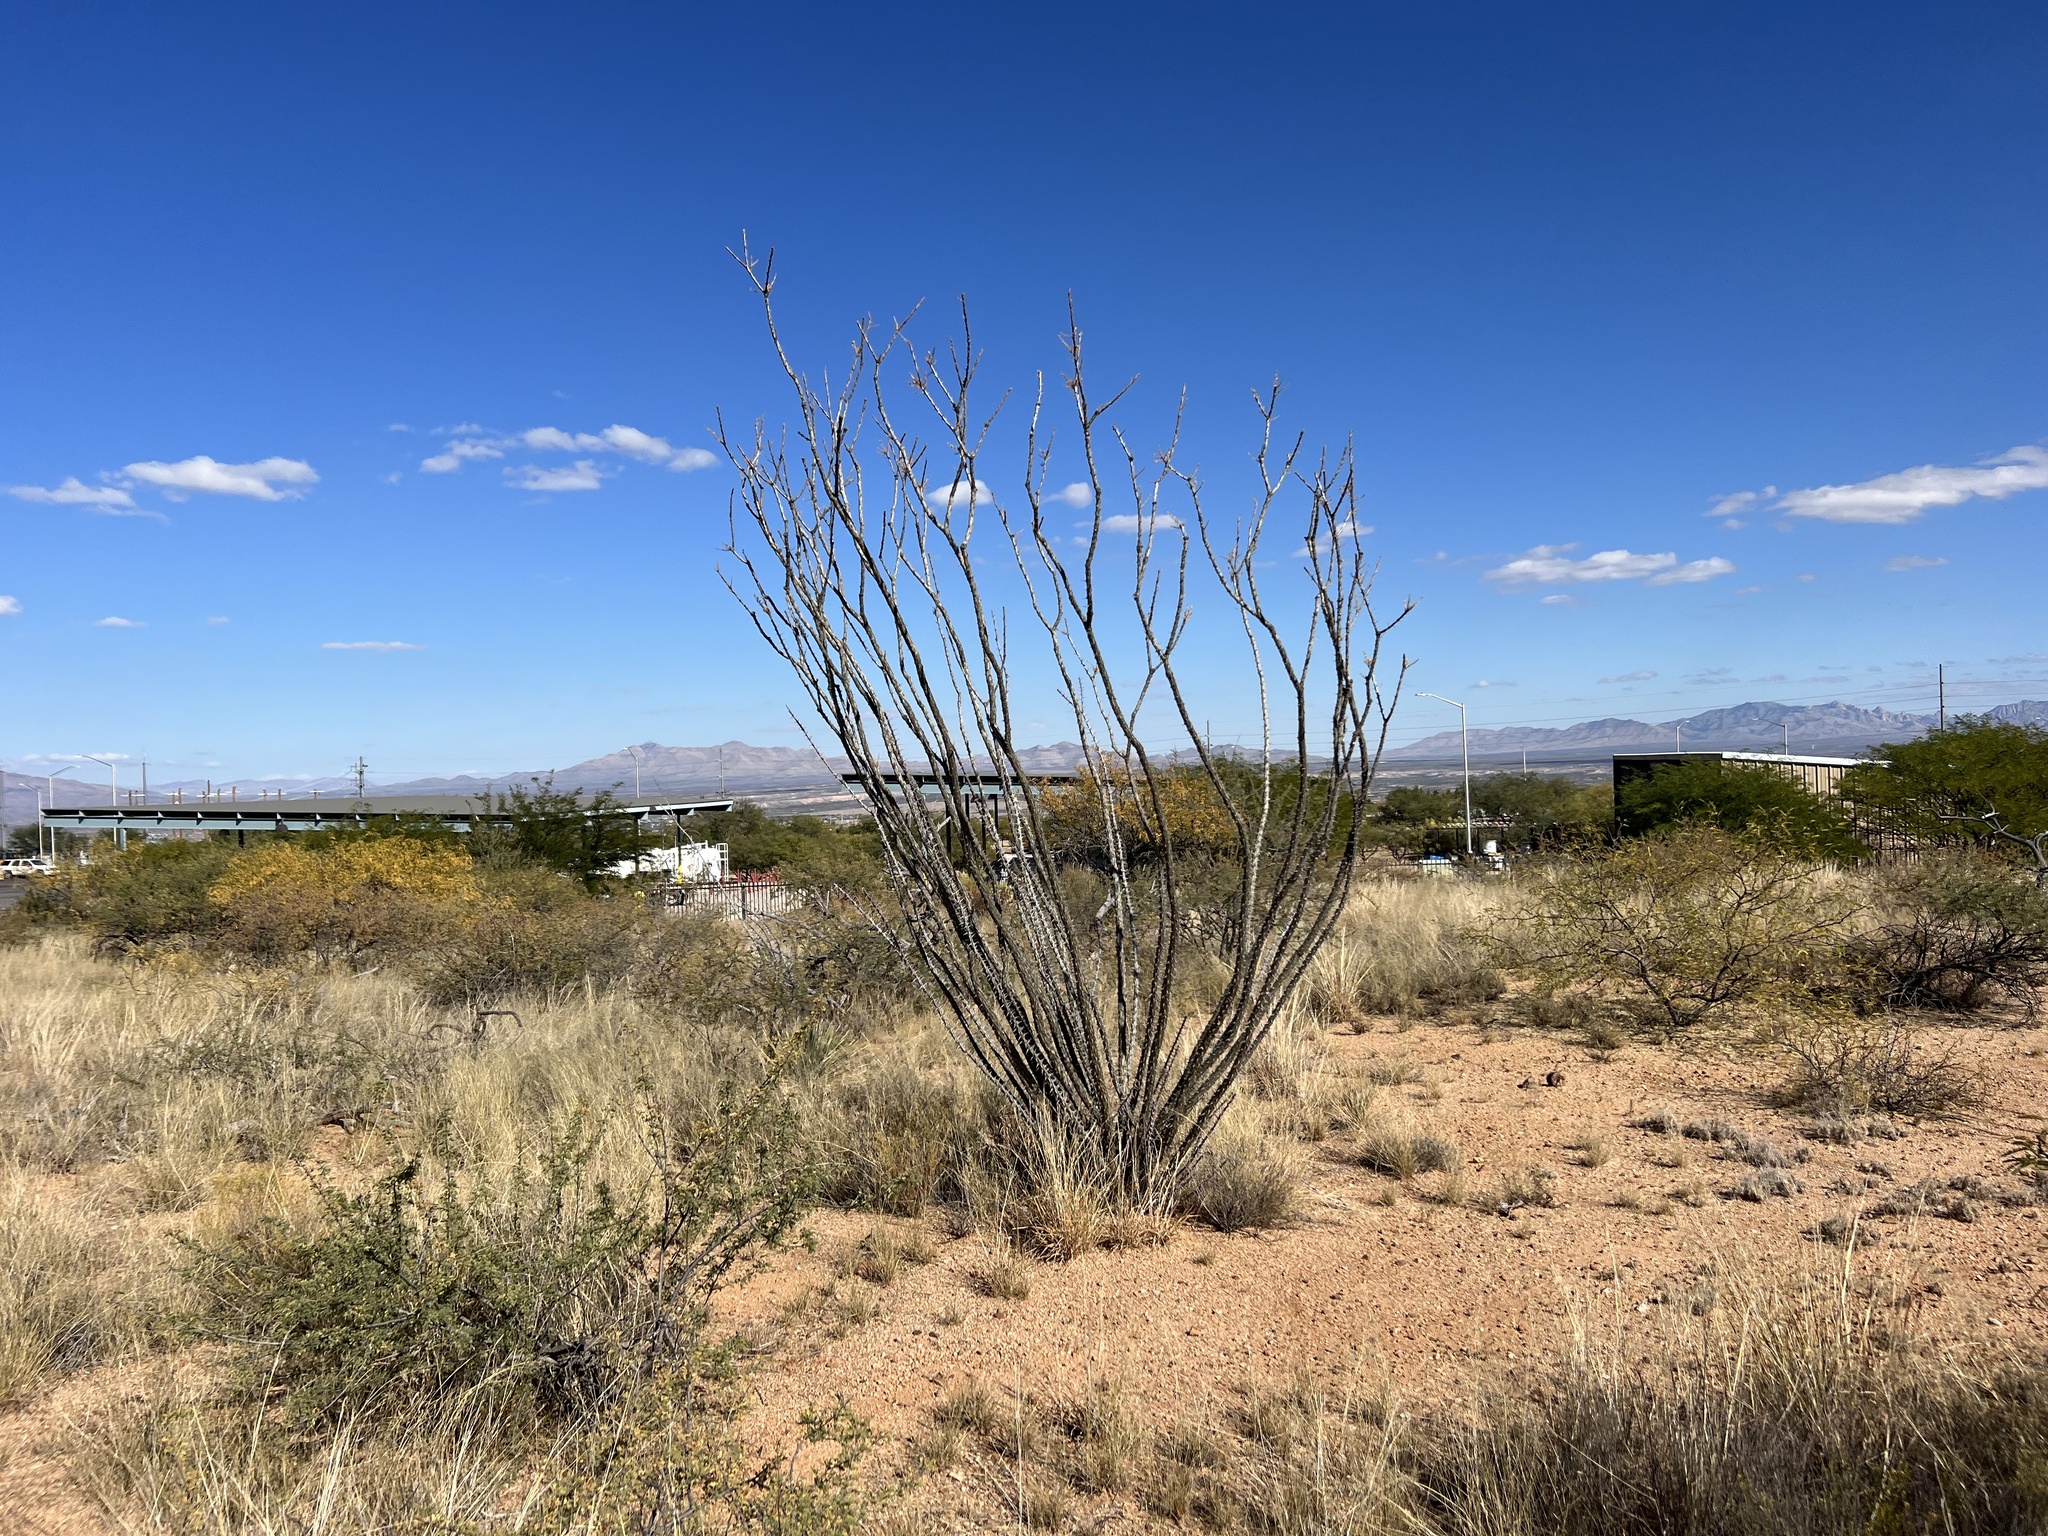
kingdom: Plantae
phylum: Tracheophyta
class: Magnoliopsida
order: Ericales
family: Fouquieriaceae
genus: Fouquieria
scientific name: Fouquieria splendens
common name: Vine-cactus
